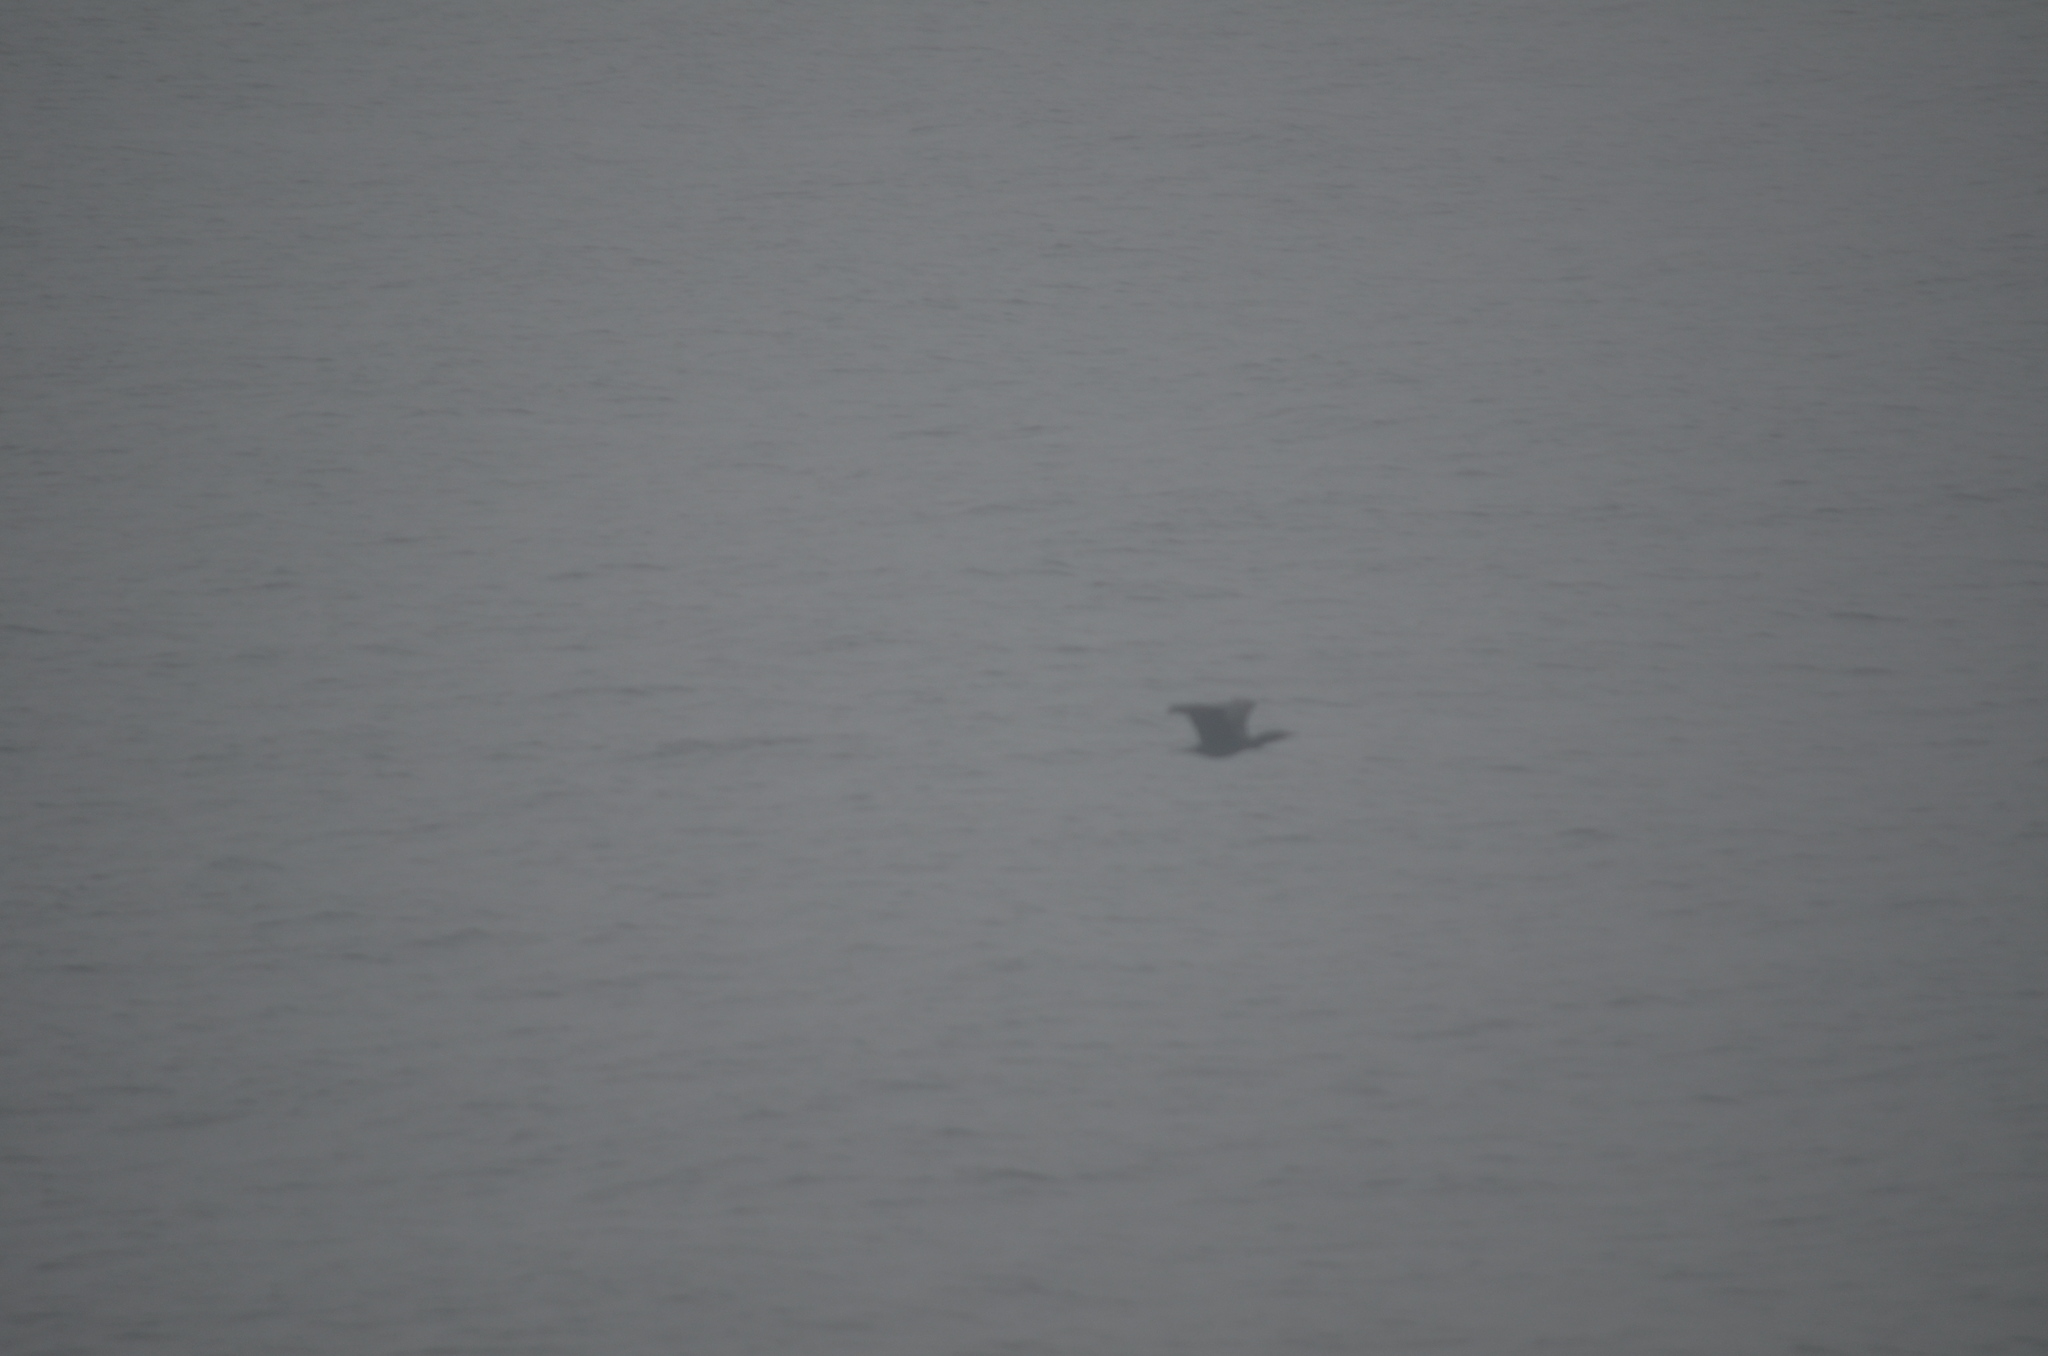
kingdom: Animalia
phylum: Chordata
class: Aves
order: Suliformes
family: Phalacrocoracidae
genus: Phalacrocorax
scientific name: Phalacrocorax auritus
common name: Double-crested cormorant
